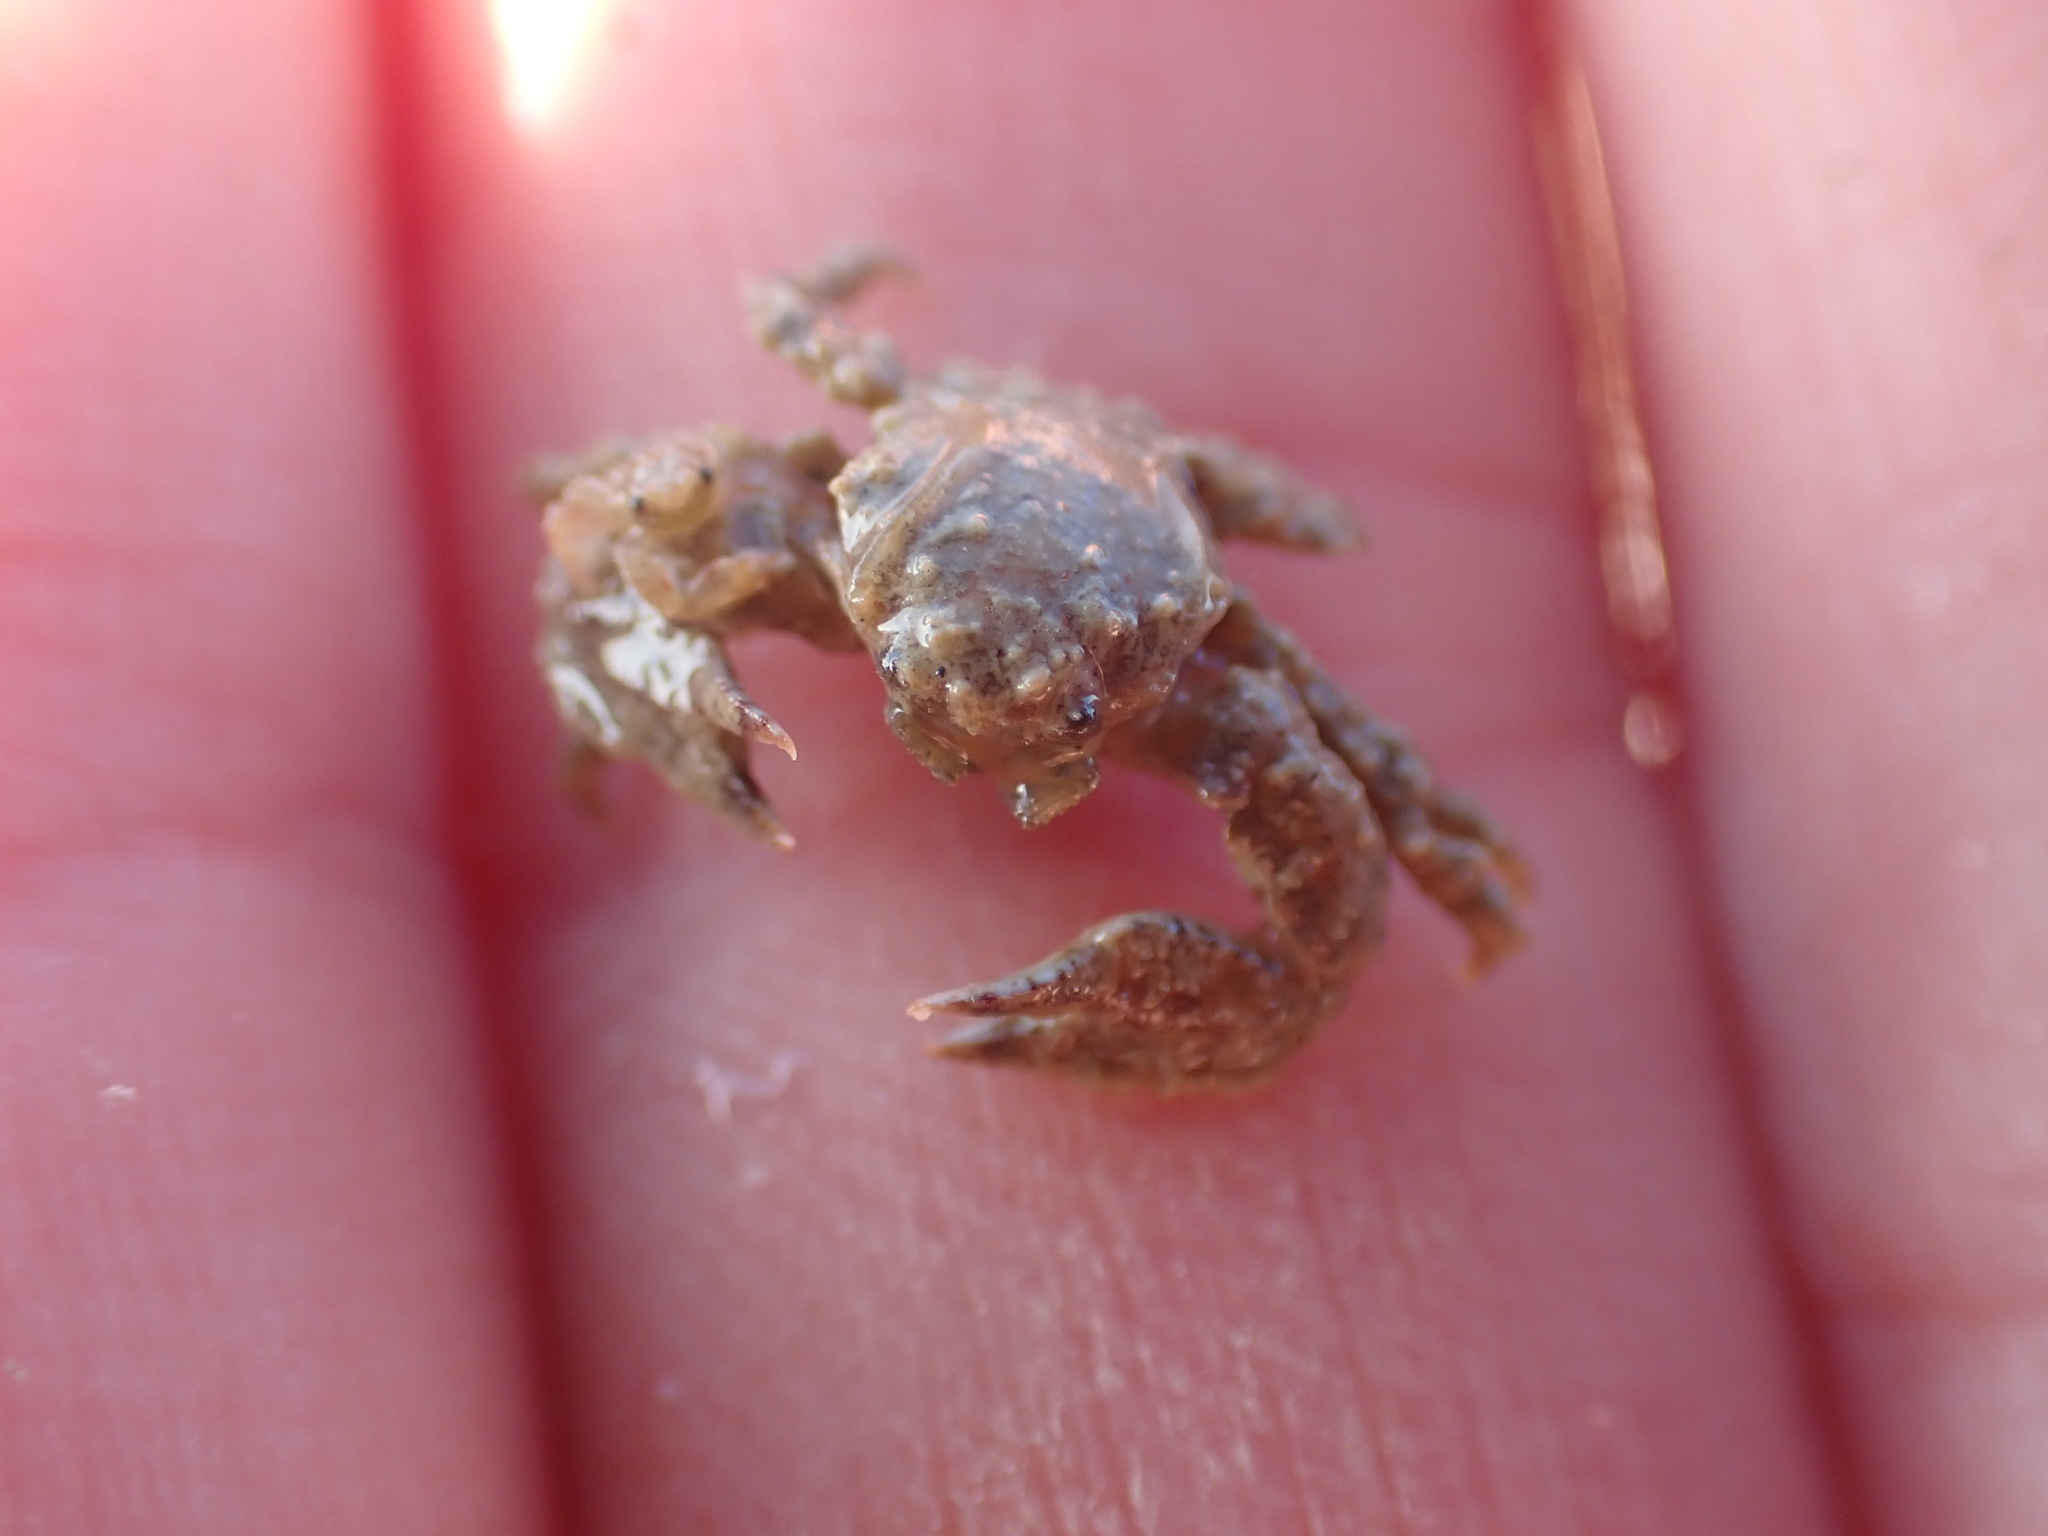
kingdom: Animalia
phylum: Arthropoda
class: Malacostraca
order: Decapoda
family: Porcellanidae
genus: Petrolisthes
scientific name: Petrolisthes novaezelandiae
